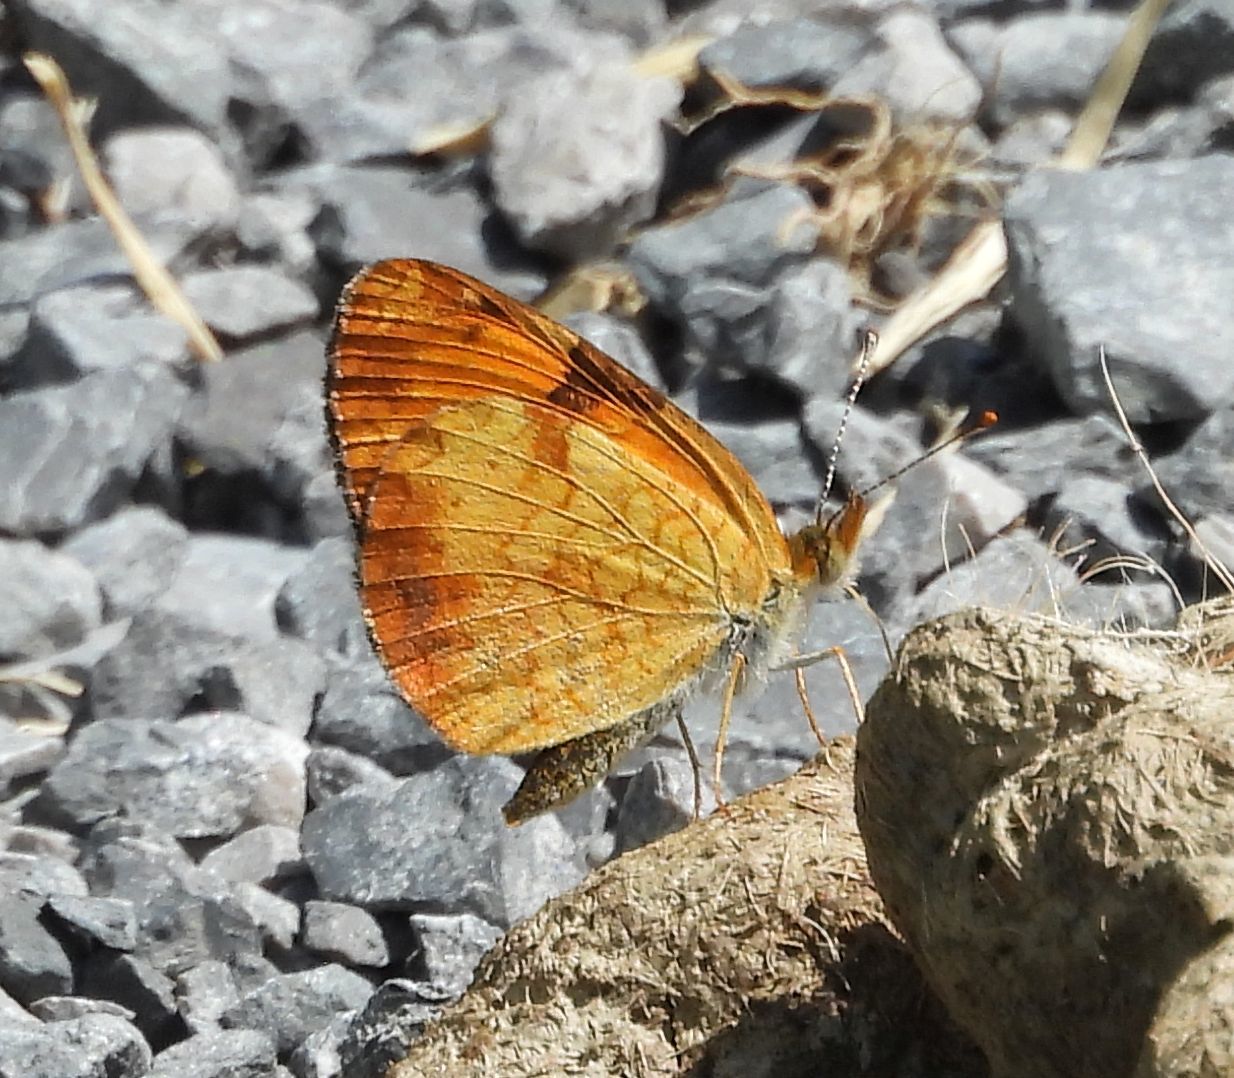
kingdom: Animalia
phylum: Arthropoda
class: Insecta
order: Lepidoptera
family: Nymphalidae
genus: Phyciodes
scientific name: Phyciodes tharos
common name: Pearl crescent
